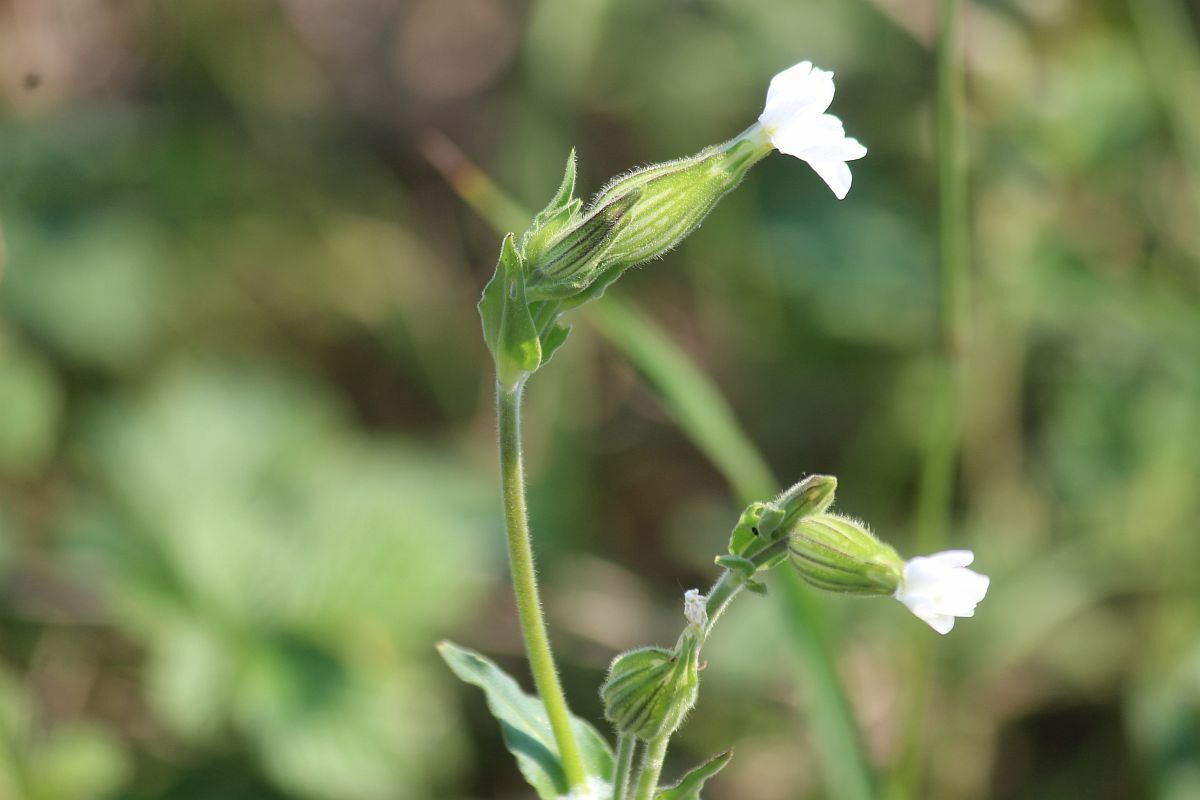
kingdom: Plantae
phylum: Tracheophyta
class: Magnoliopsida
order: Caryophyllales
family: Caryophyllaceae
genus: Silene
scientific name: Silene latifolia
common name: White campion
